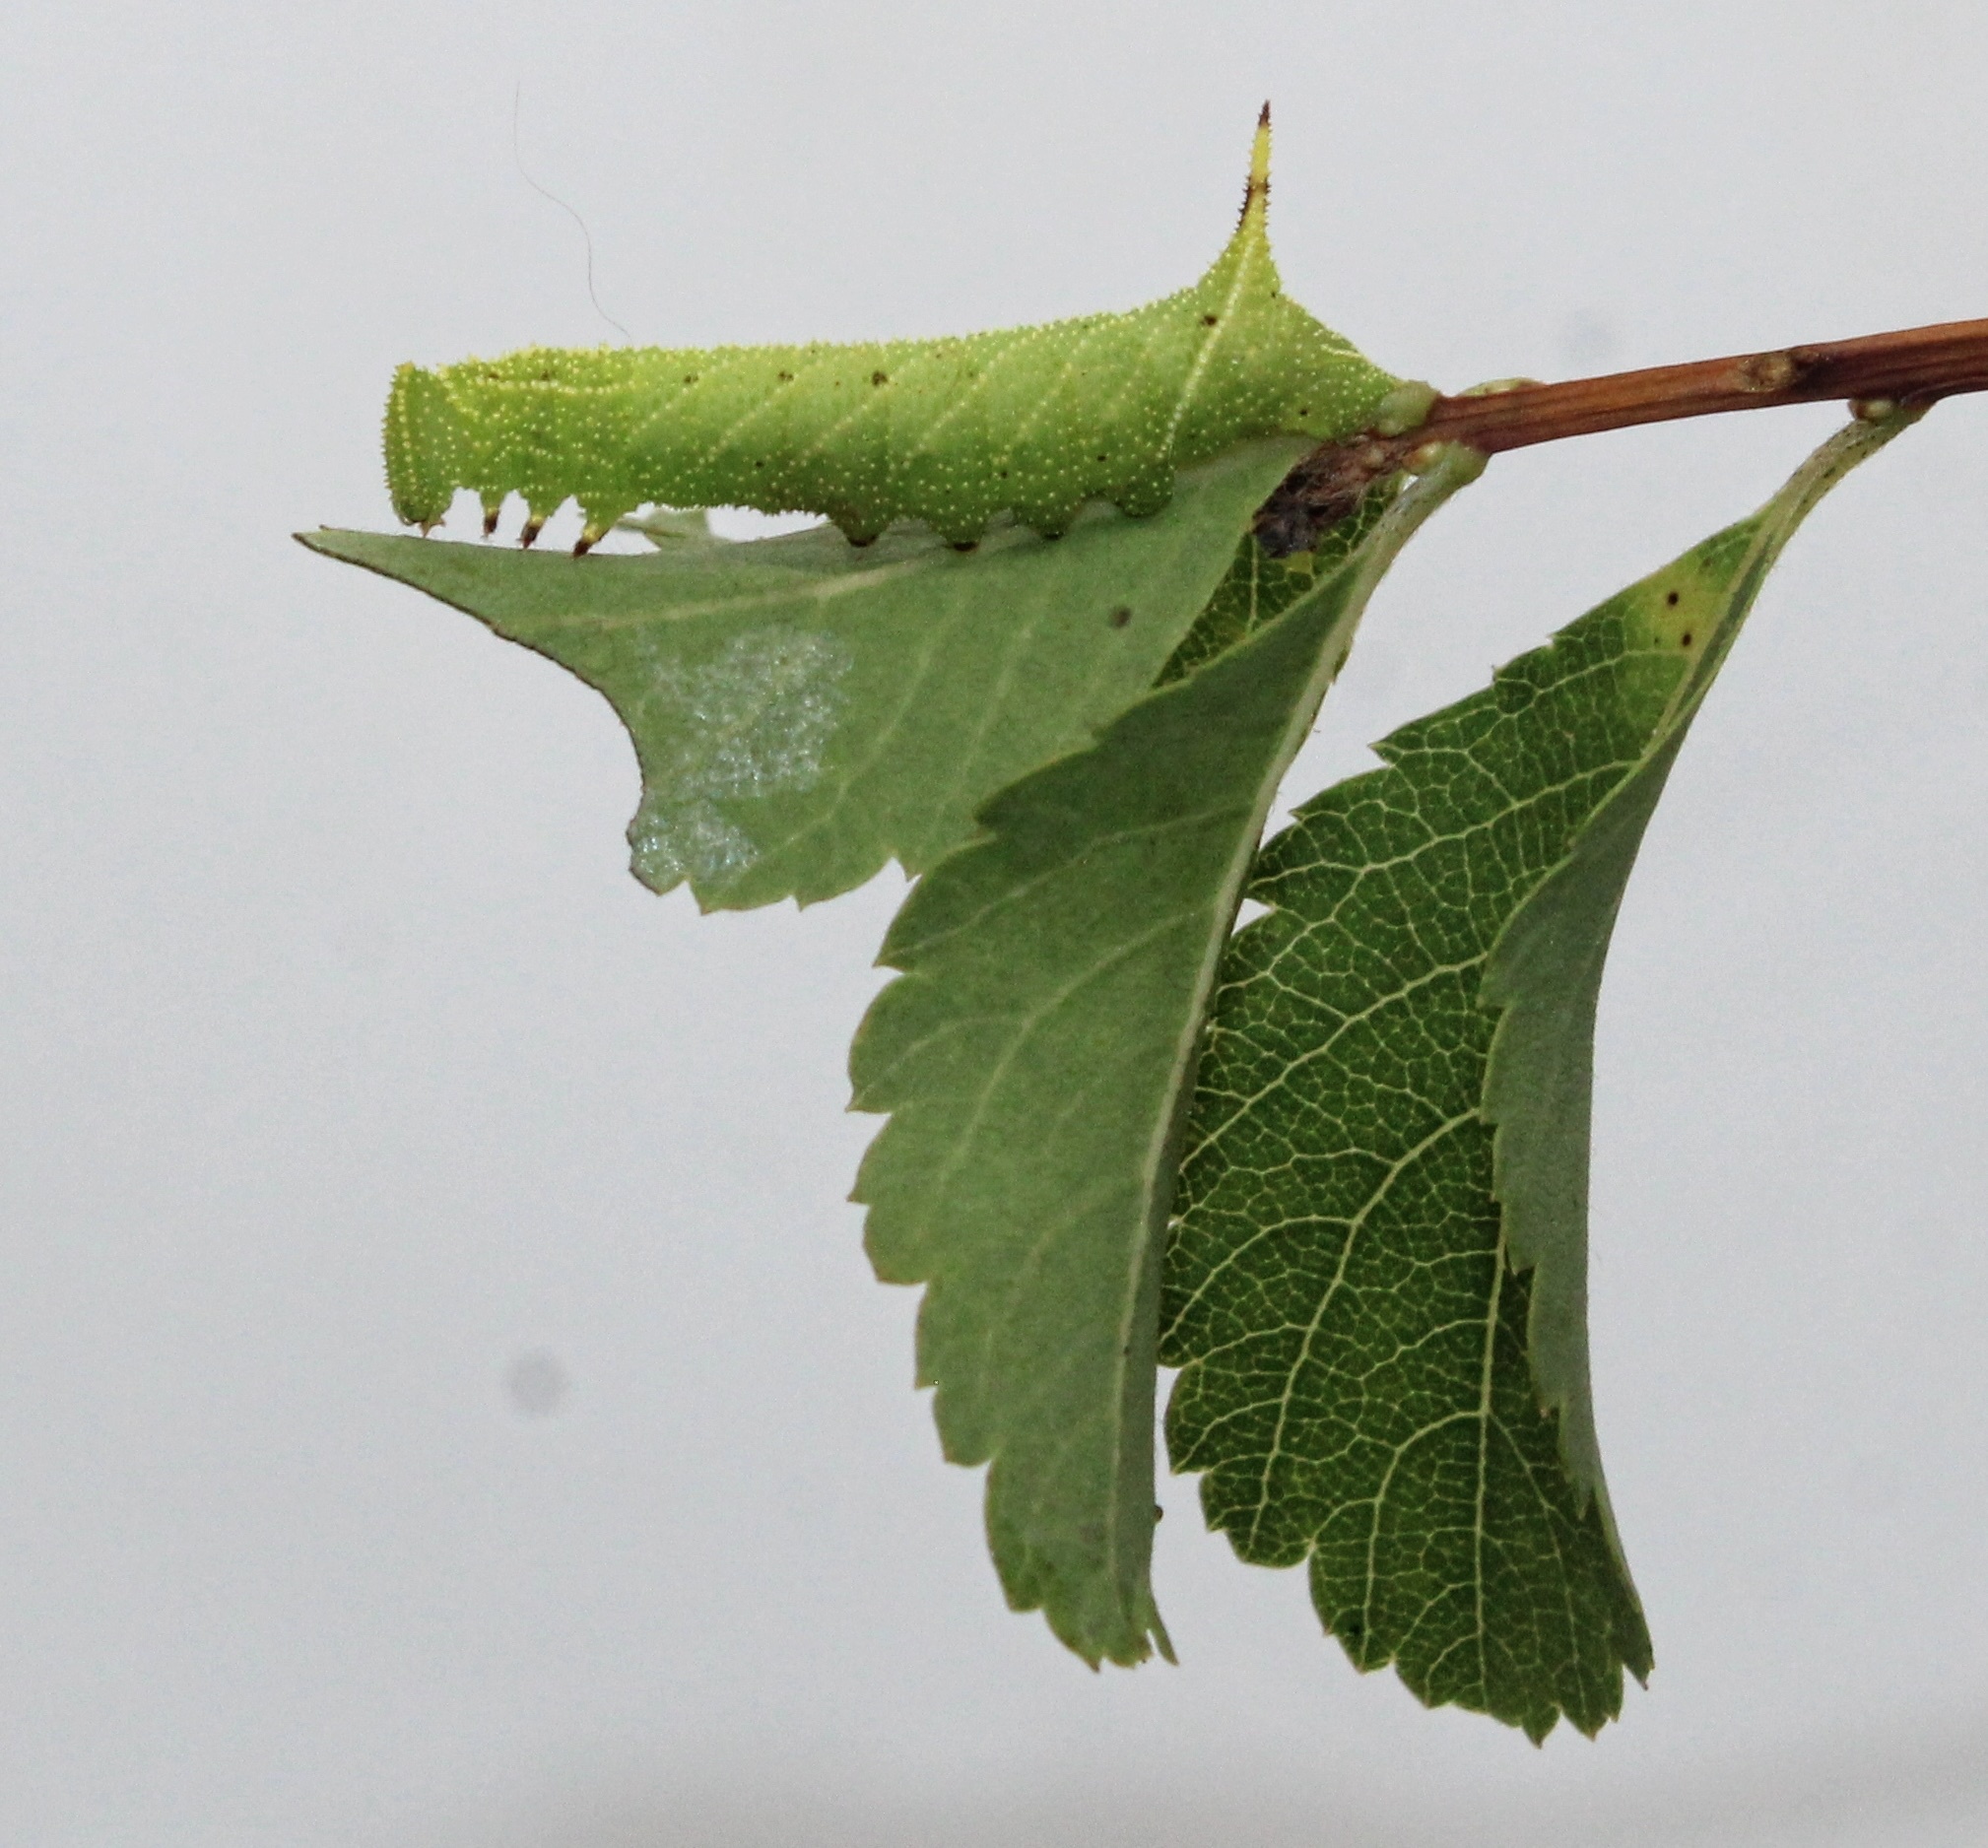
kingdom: Animalia
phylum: Arthropoda
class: Insecta
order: Lepidoptera
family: Sphingidae
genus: Paonias
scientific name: Paonias excaecata
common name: Blind-eyed sphinx
